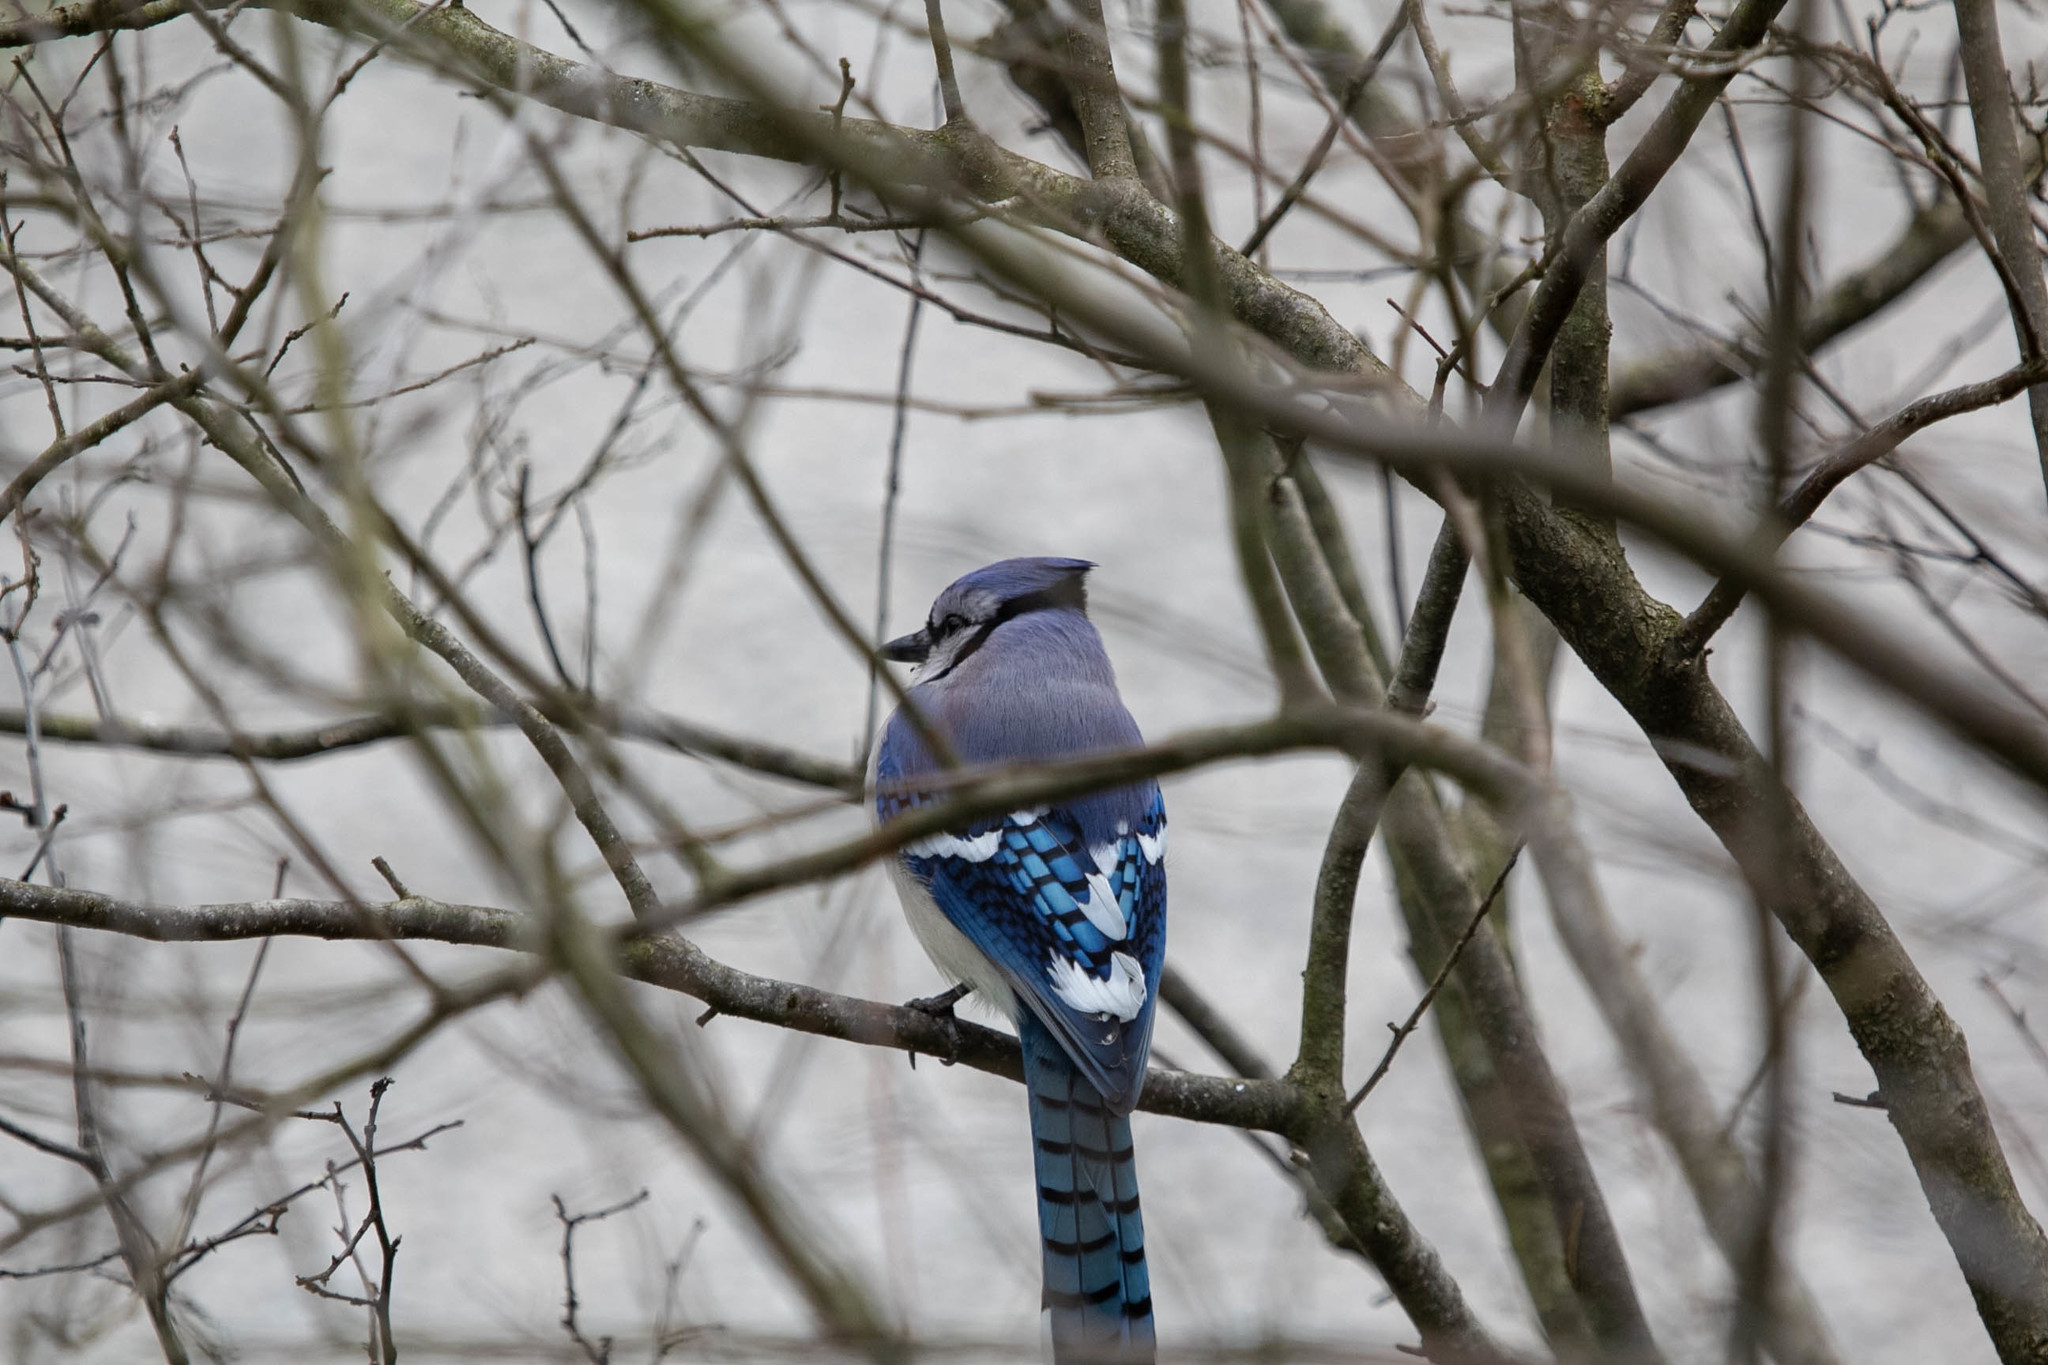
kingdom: Animalia
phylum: Chordata
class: Aves
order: Passeriformes
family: Corvidae
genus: Cyanocitta
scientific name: Cyanocitta cristata
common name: Blue jay
